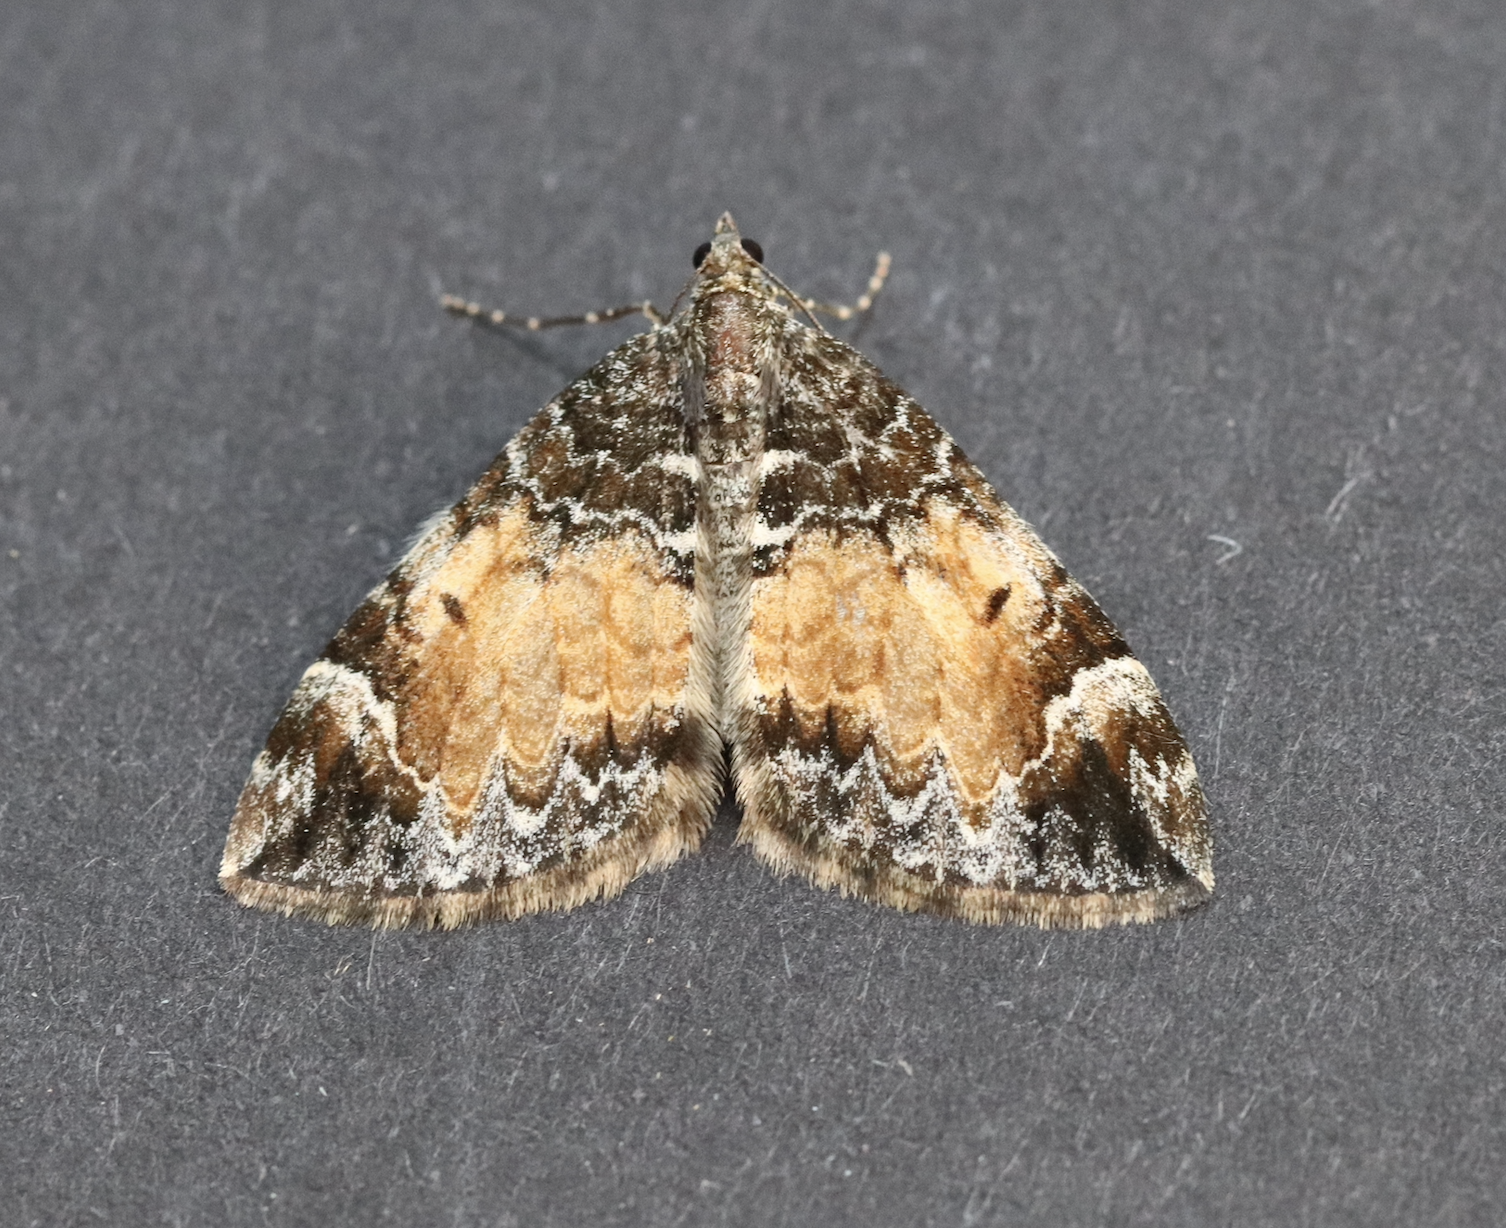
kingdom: Animalia
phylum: Arthropoda
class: Insecta
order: Lepidoptera
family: Geometridae
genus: Dysstroma
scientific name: Dysstroma truncata
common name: Common marbled carpet
